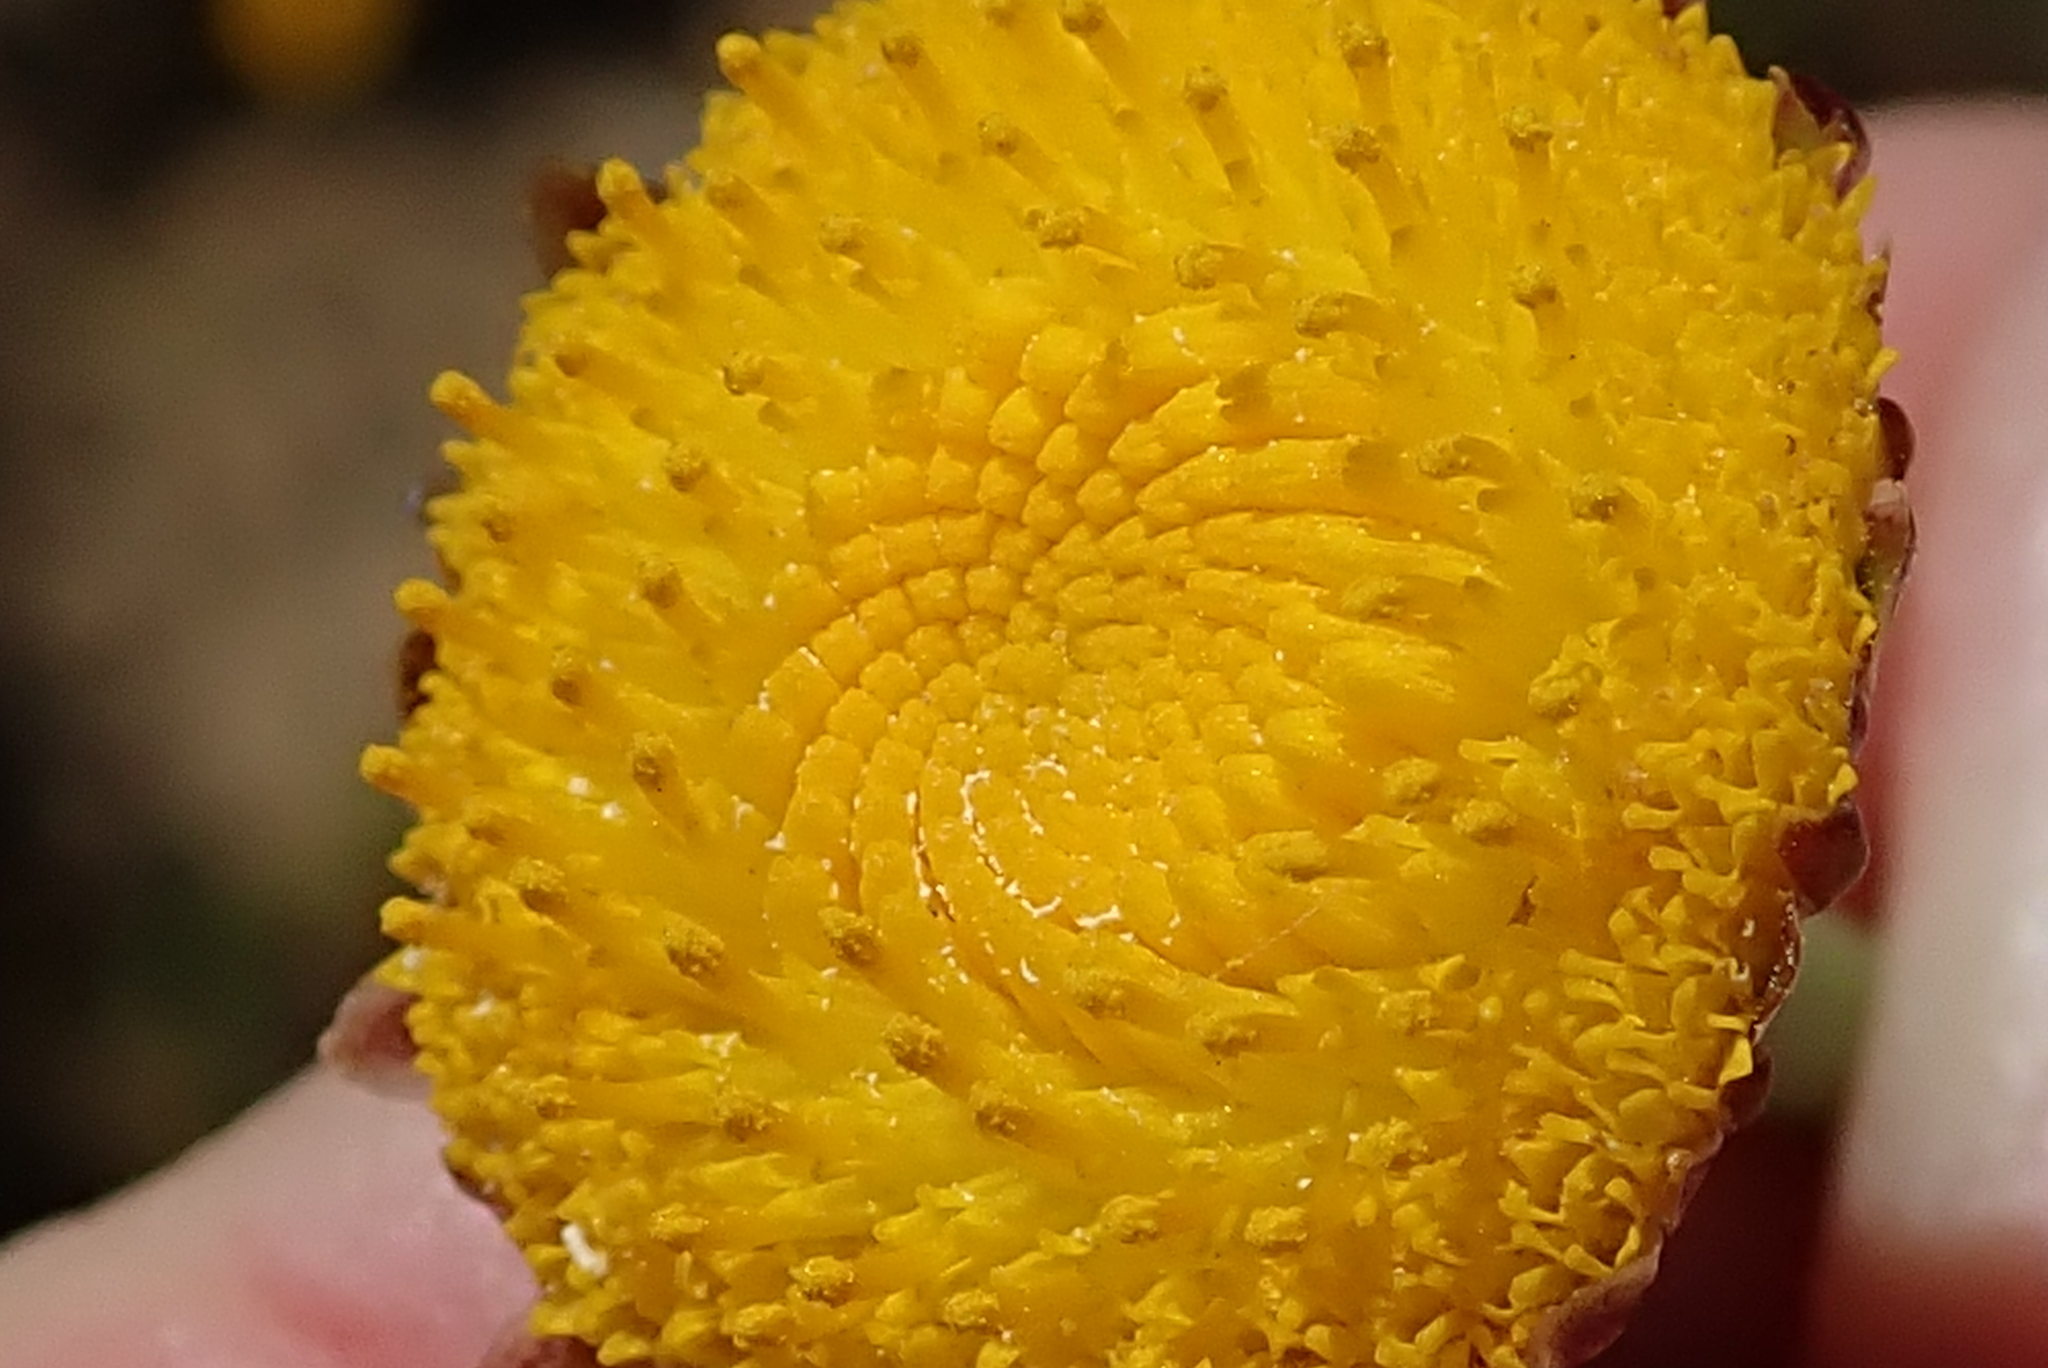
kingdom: Plantae
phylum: Tracheophyta
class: Magnoliopsida
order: Asterales
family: Asteraceae
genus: Cotula
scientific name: Cotula microglossa
